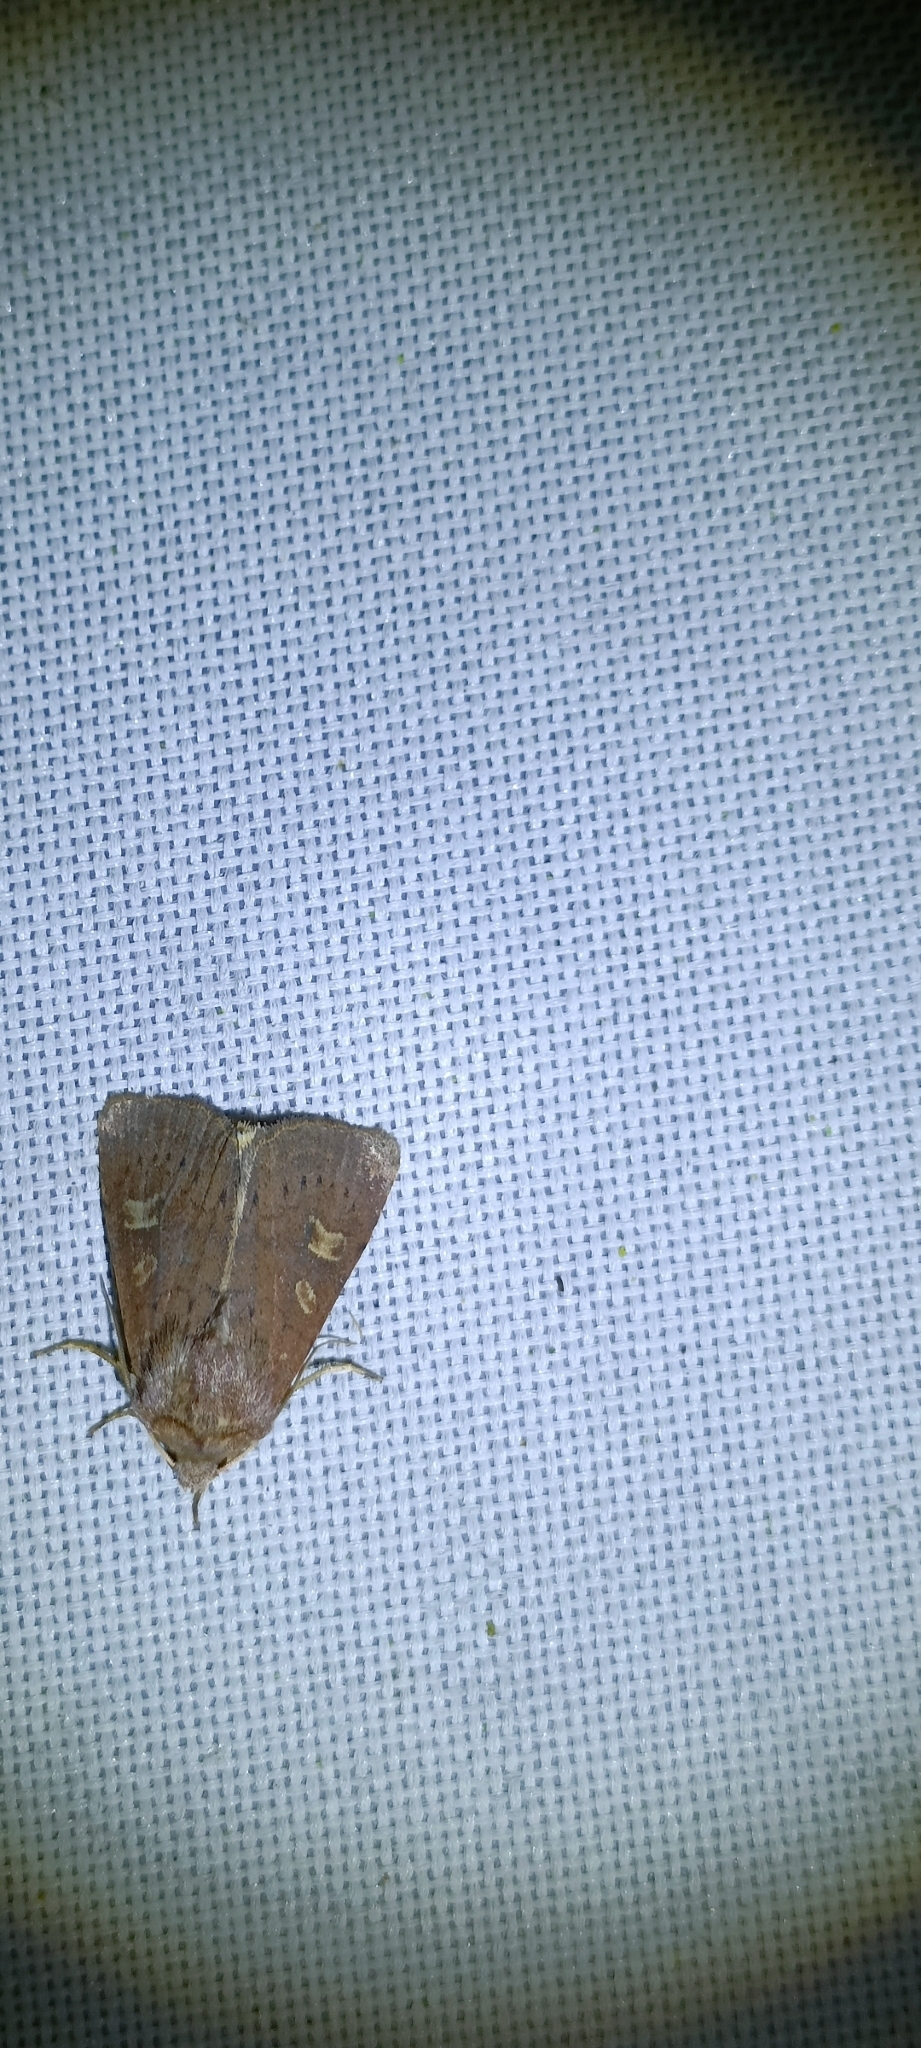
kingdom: Animalia
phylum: Arthropoda
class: Insecta
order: Lepidoptera
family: Noctuidae
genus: Xestia
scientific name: Xestia xanthographa
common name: Square-spot rustic
